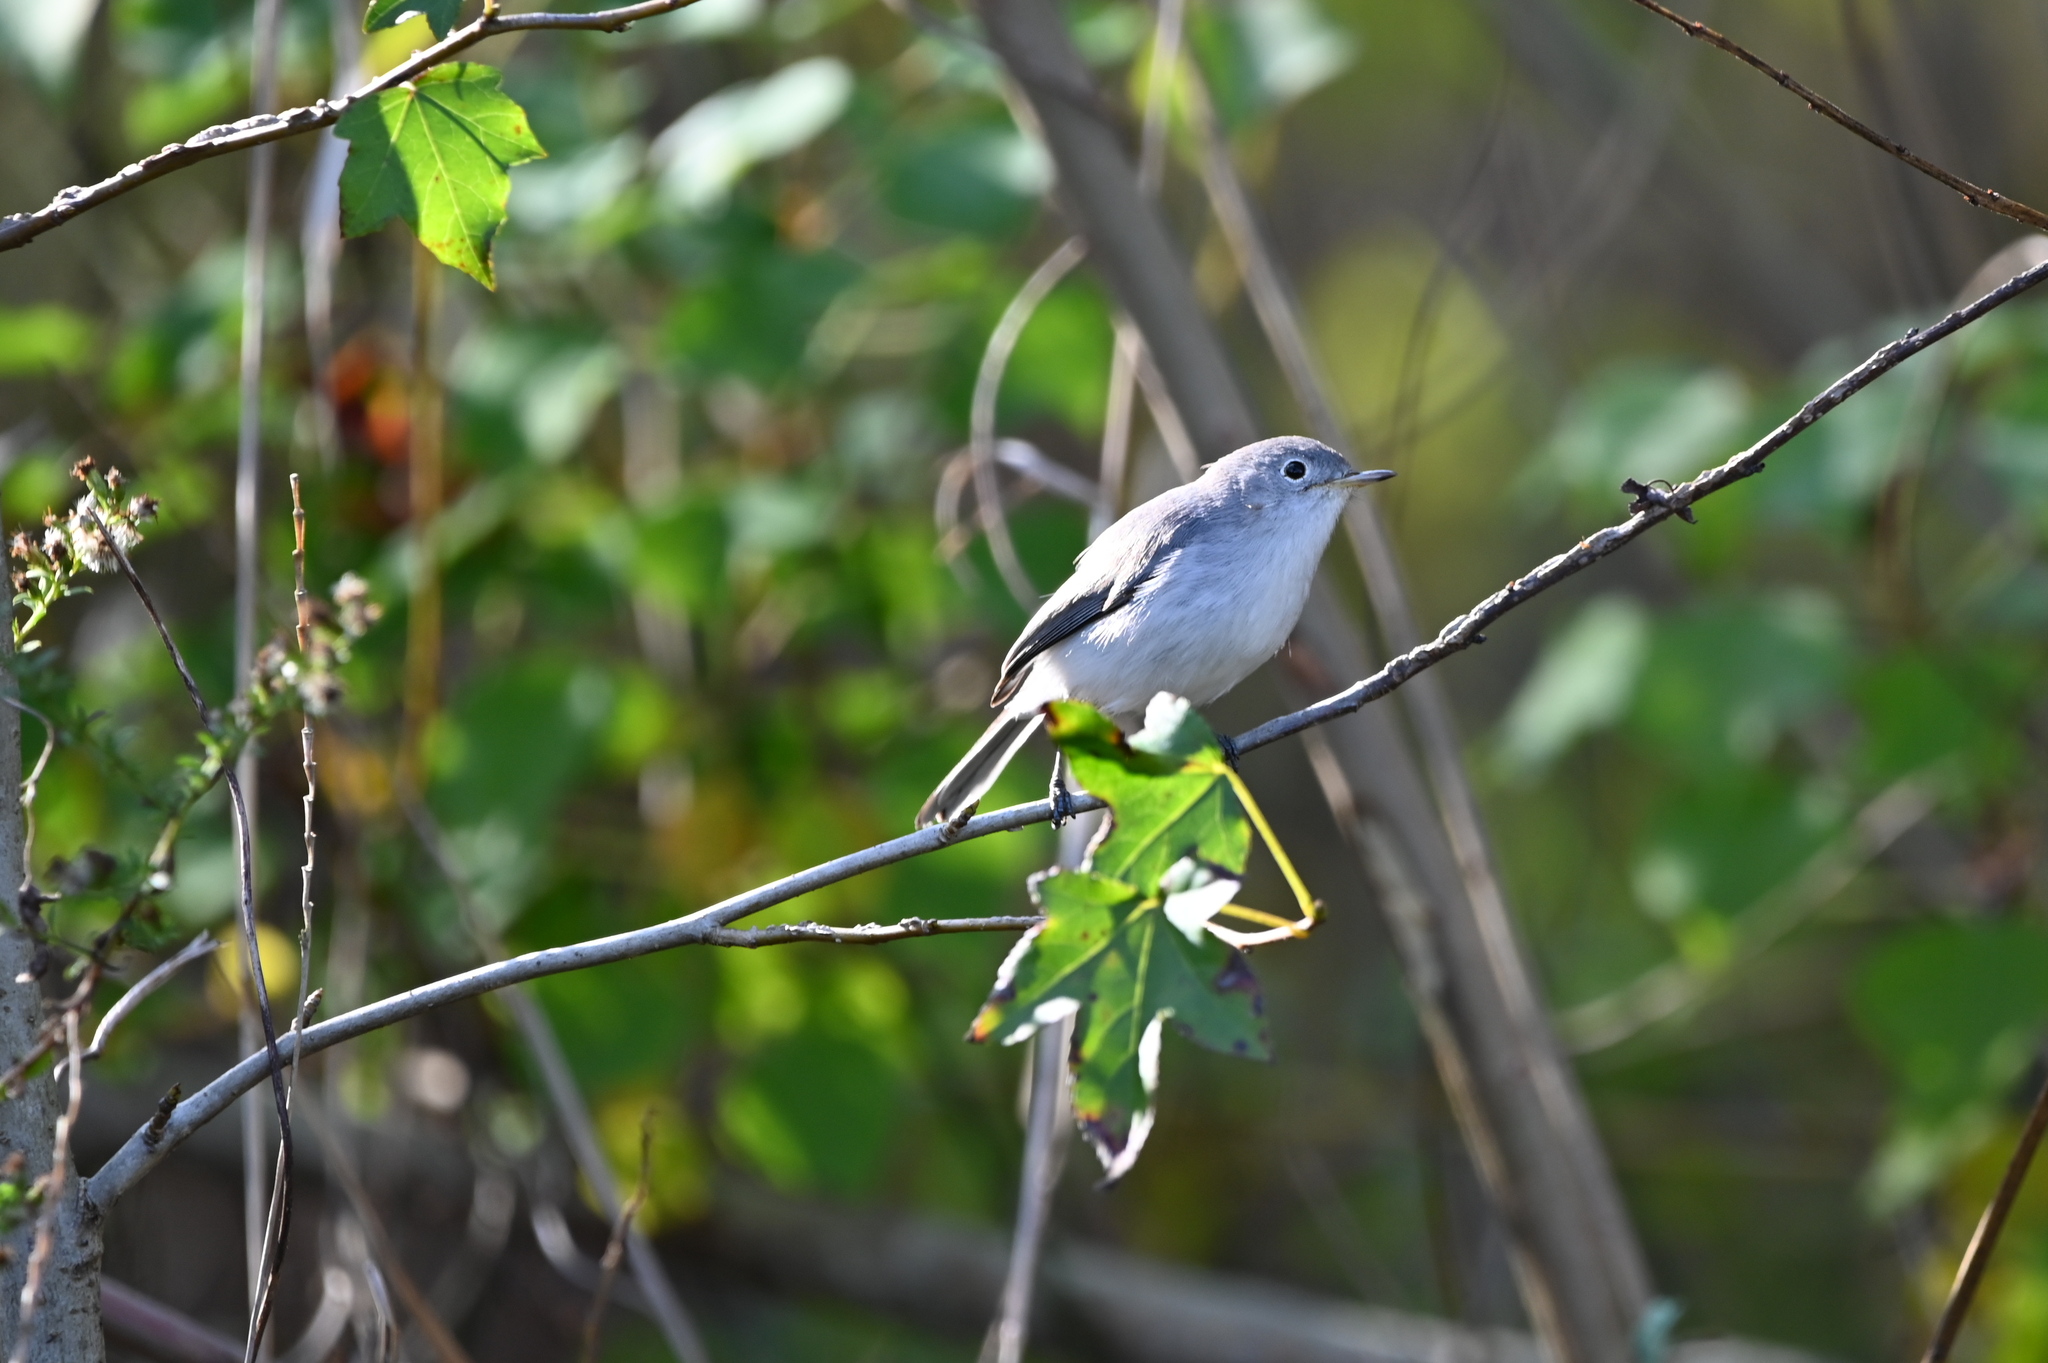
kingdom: Animalia
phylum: Chordata
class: Aves
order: Passeriformes
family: Polioptilidae
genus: Polioptila
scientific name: Polioptila caerulea
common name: Blue-gray gnatcatcher
